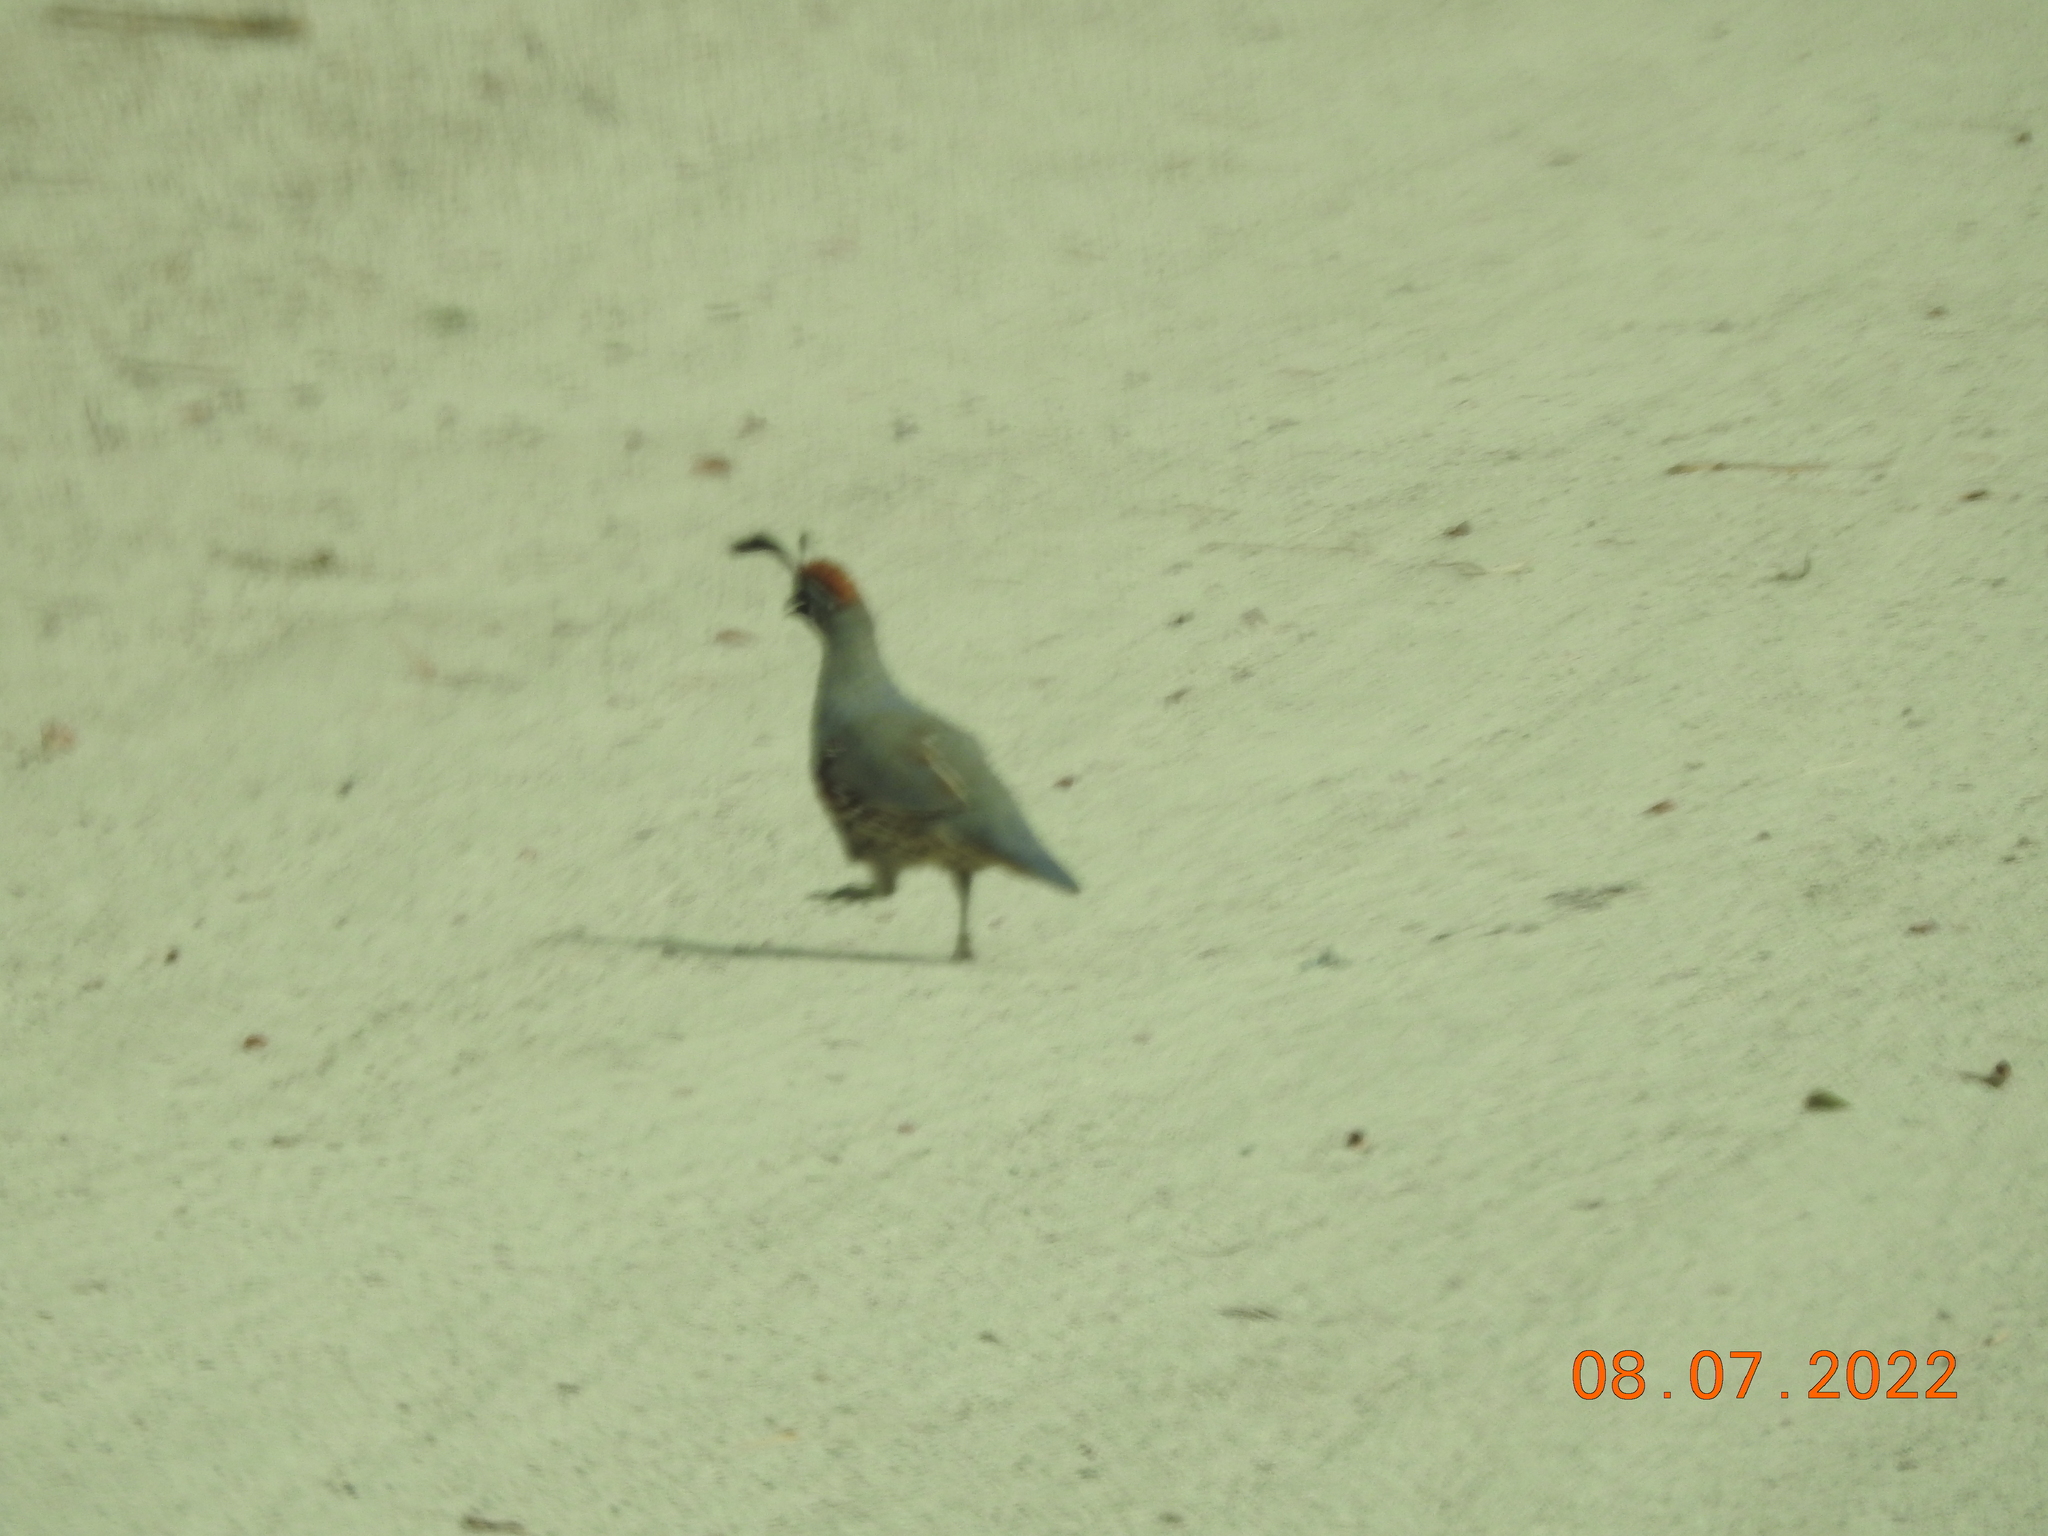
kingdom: Animalia
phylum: Chordata
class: Aves
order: Galliformes
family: Odontophoridae
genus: Callipepla
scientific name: Callipepla gambelii
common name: Gambel's quail
